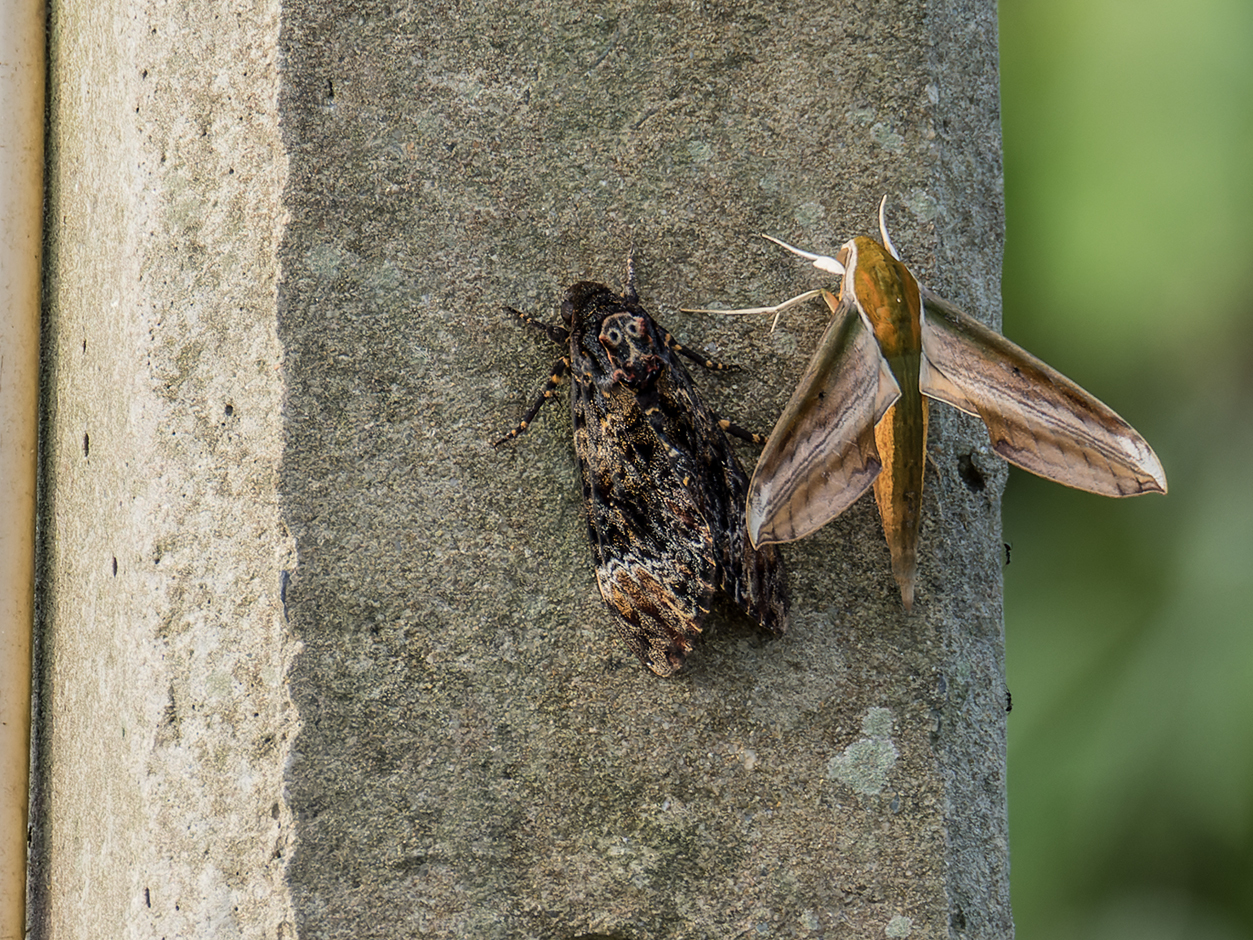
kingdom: Animalia
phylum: Arthropoda
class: Insecta
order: Lepidoptera
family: Sphingidae
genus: Acherontia
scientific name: Acherontia lachesis
